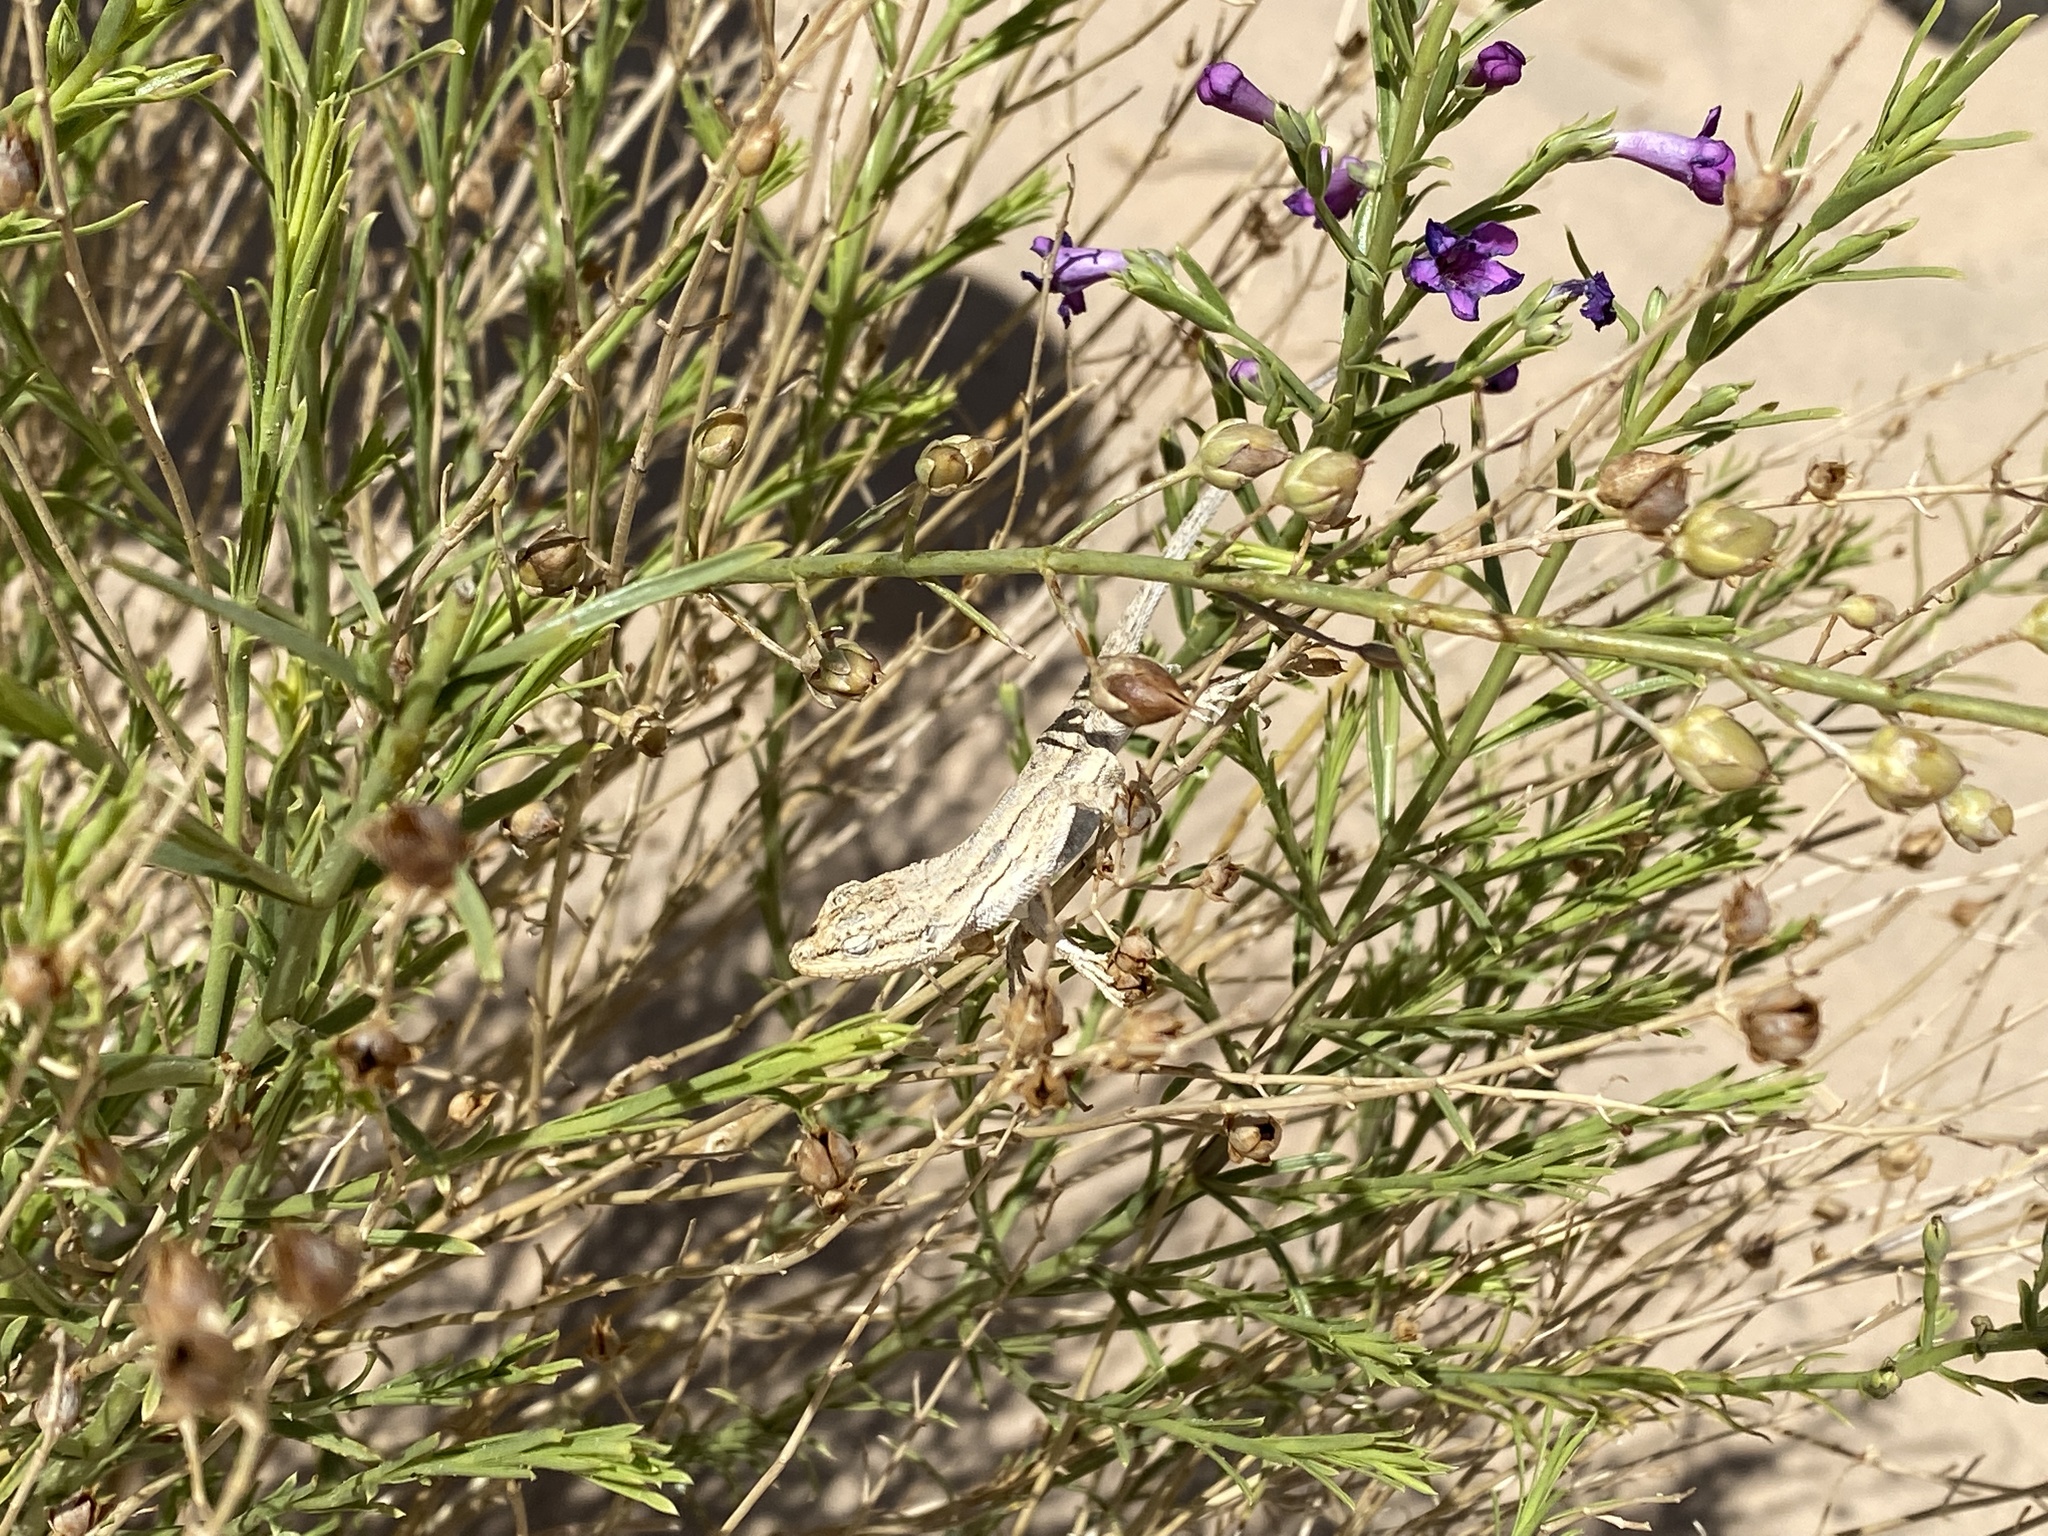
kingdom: Plantae
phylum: Tracheophyta
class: Magnoliopsida
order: Lamiales
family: Plantaginaceae
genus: Penstemon
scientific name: Penstemon thurberi
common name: Thurber's beardtongue
